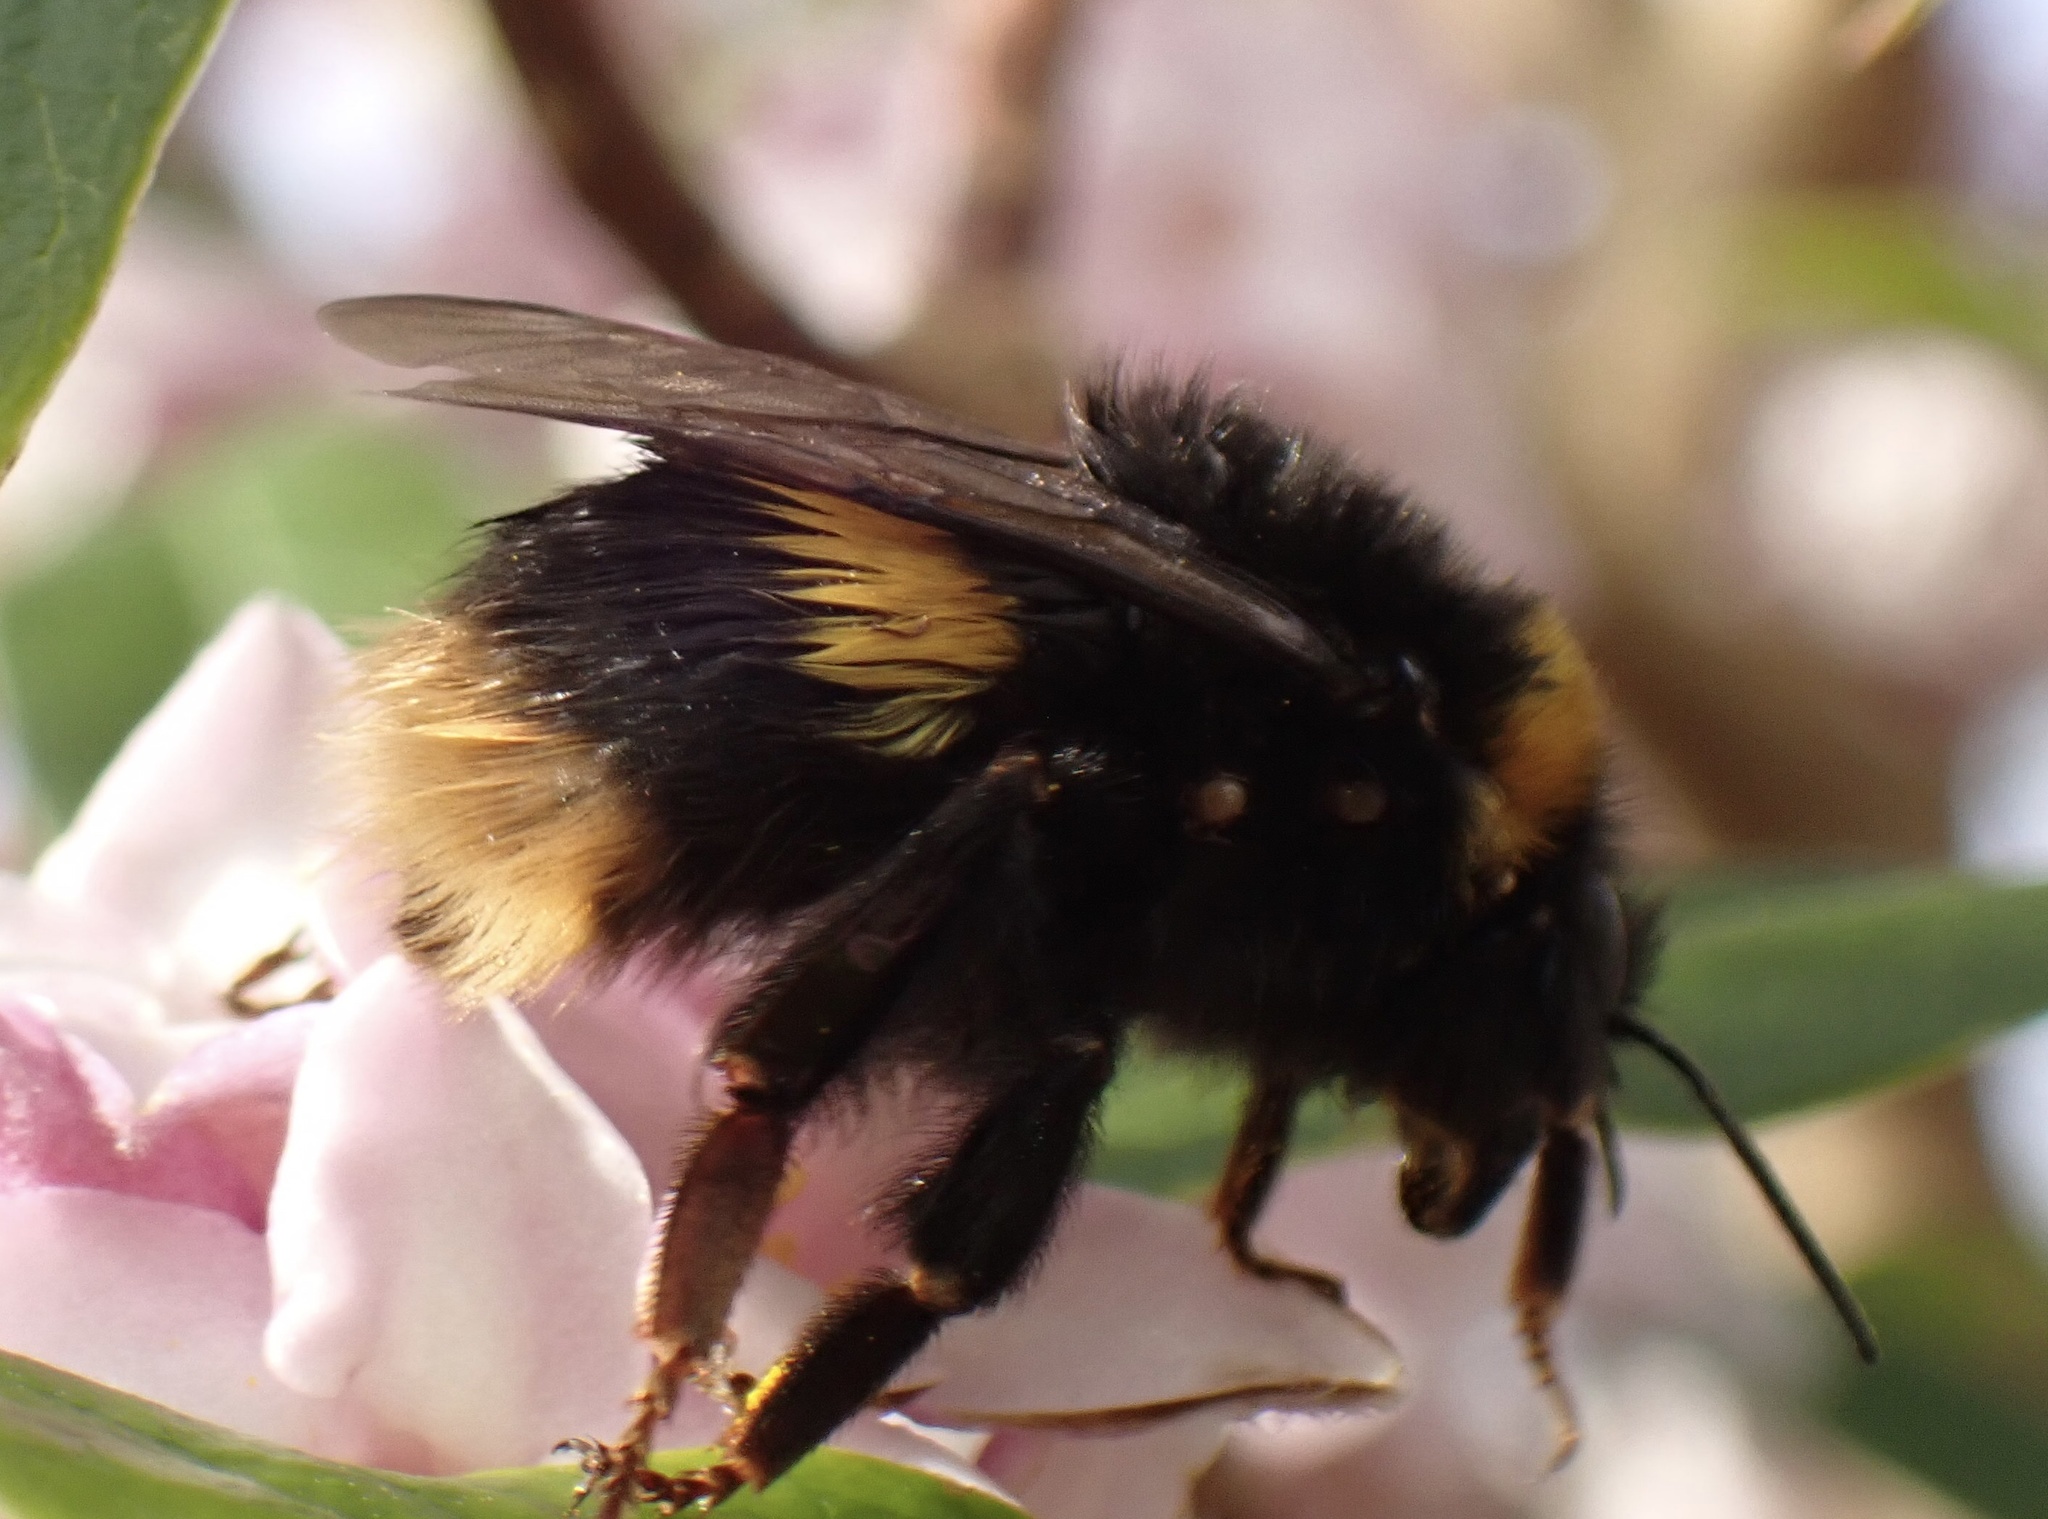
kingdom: Animalia
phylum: Arthropoda
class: Insecta
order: Hymenoptera
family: Apidae
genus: Bombus
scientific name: Bombus terrestris
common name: Buff-tailed bumblebee
